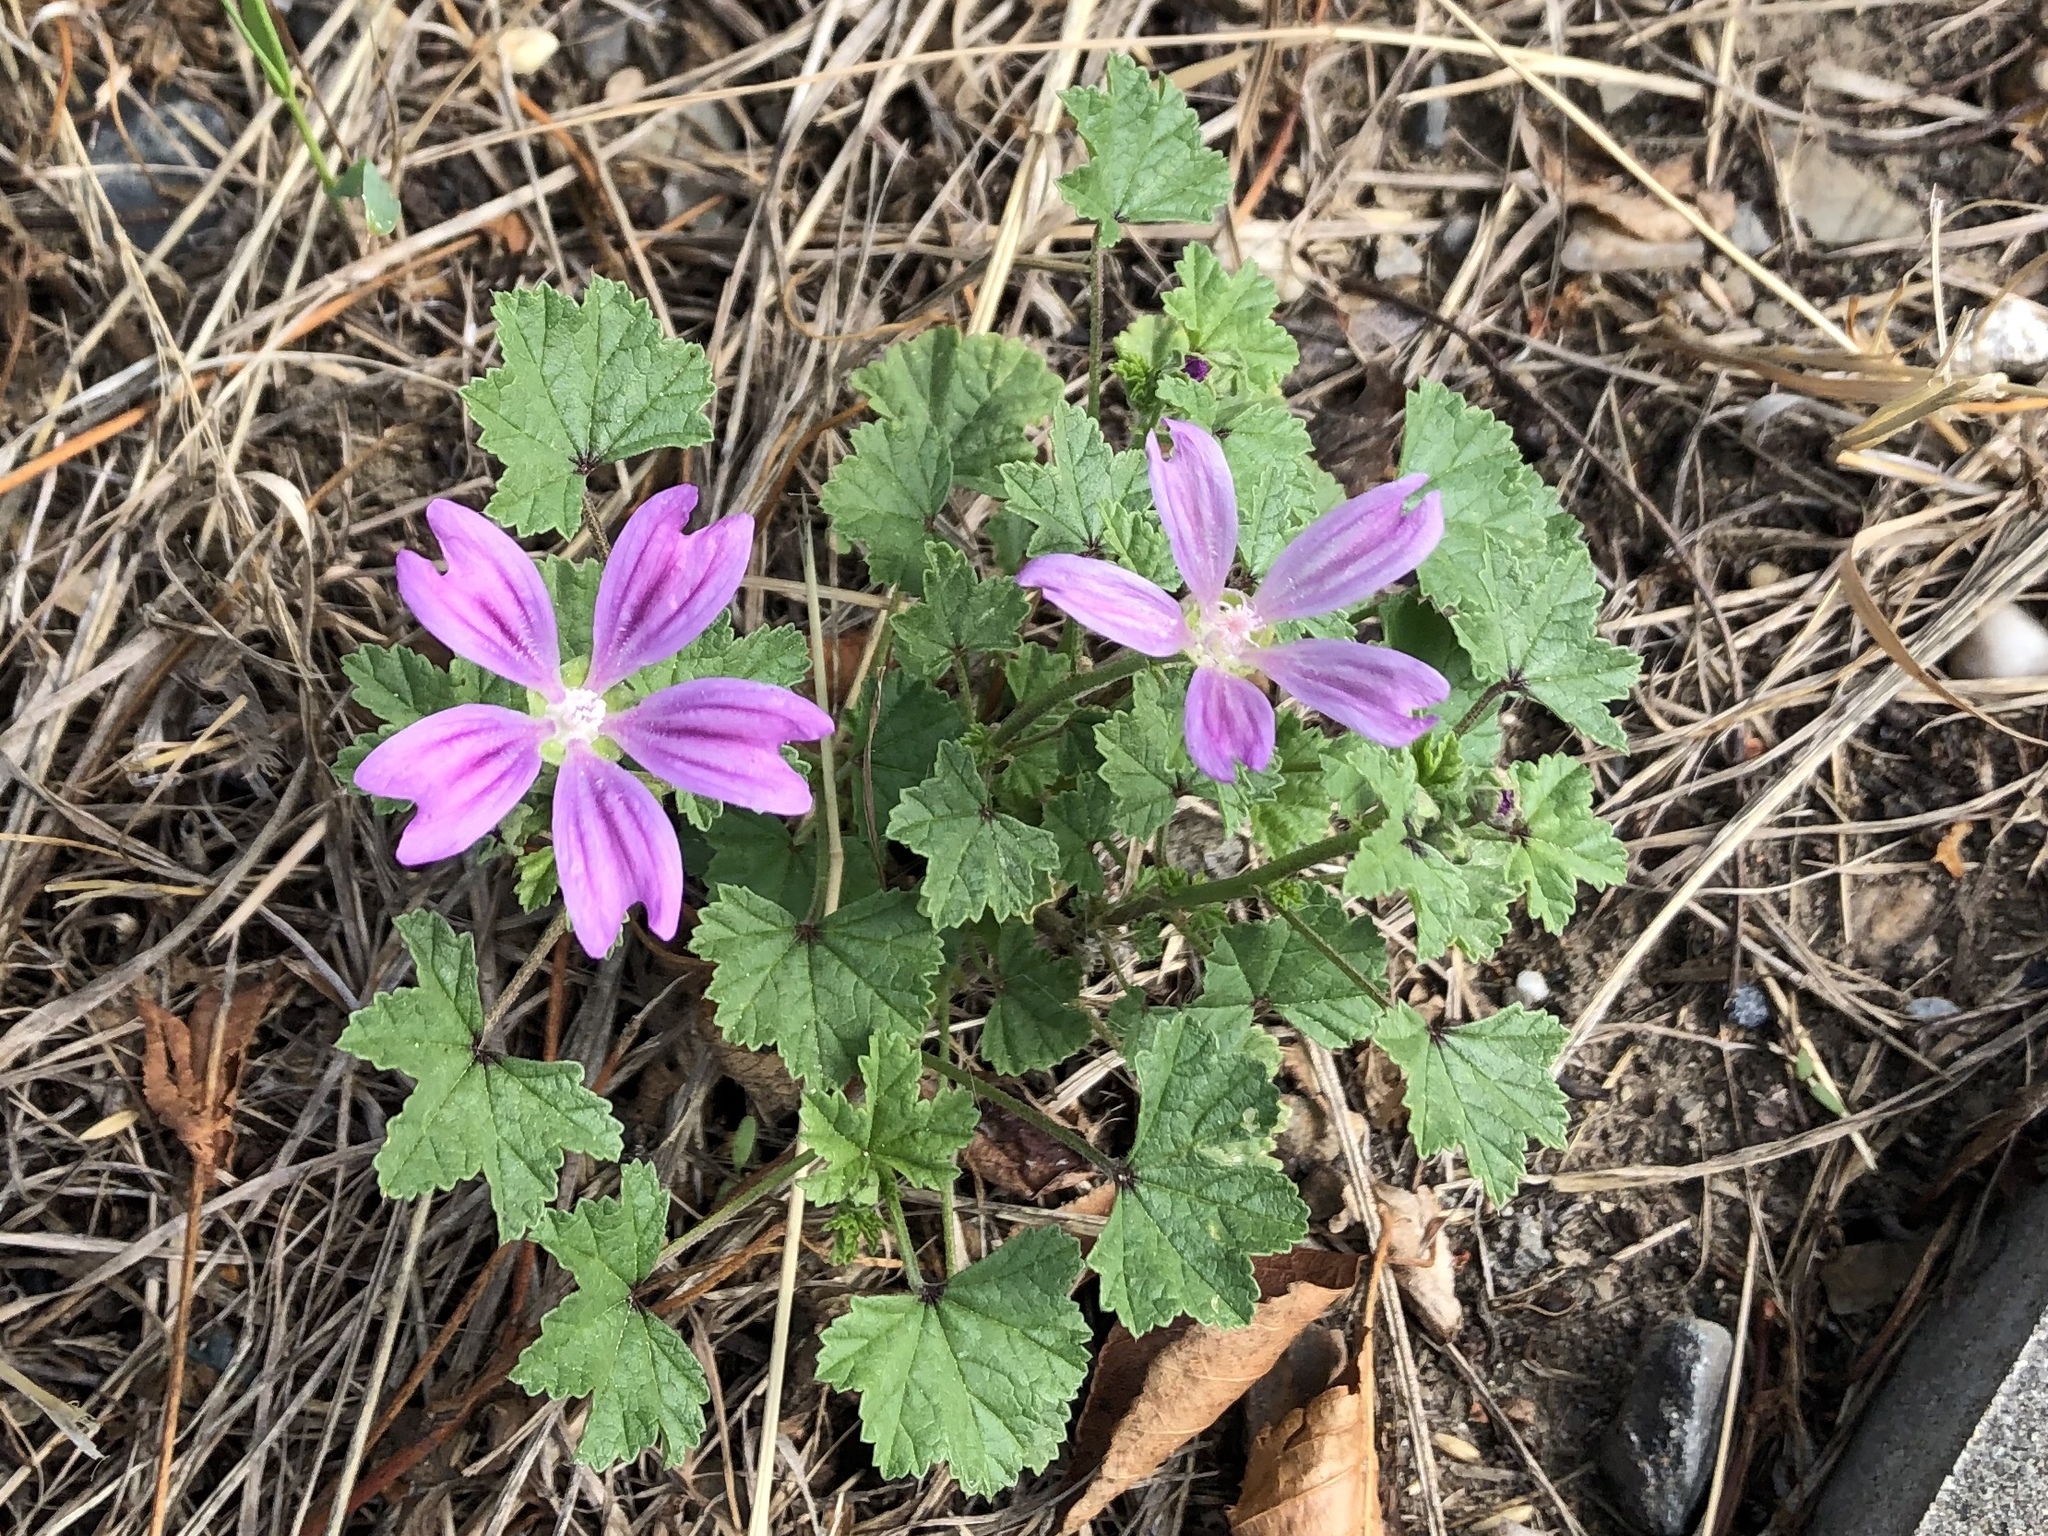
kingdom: Plantae
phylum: Tracheophyta
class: Magnoliopsida
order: Malvales
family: Malvaceae
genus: Malva
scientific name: Malva sylvestris
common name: Common mallow
